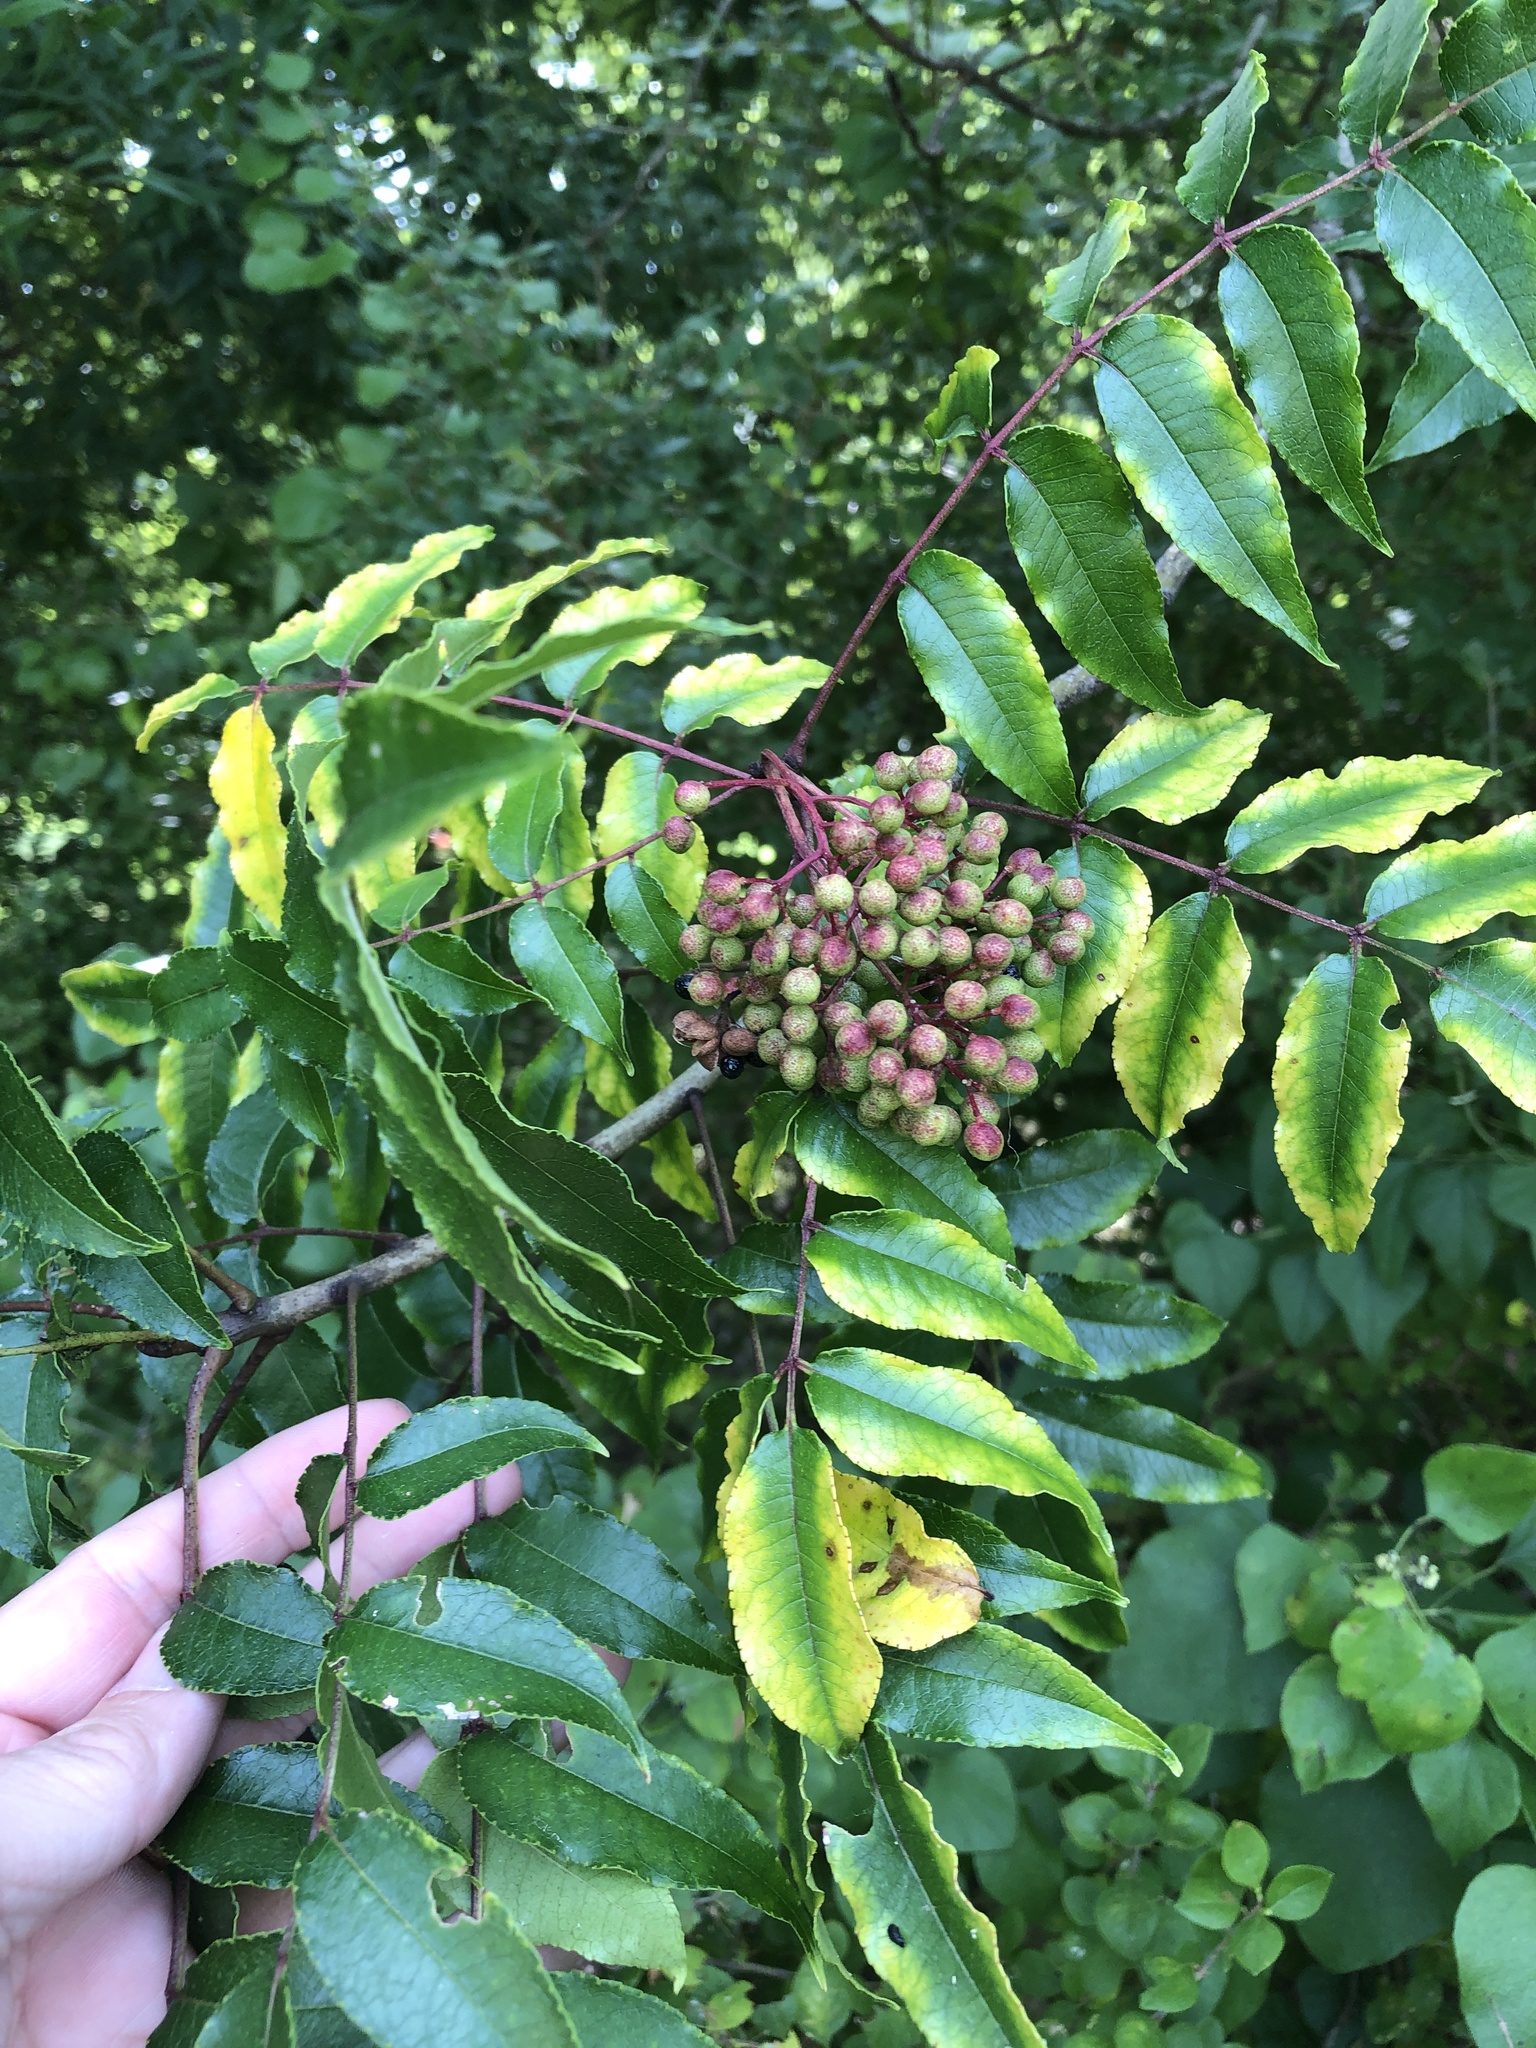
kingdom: Plantae
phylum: Tracheophyta
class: Magnoliopsida
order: Sapindales
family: Rutaceae
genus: Zanthoxylum
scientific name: Zanthoxylum clava-herculis
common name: Hercules'-club
